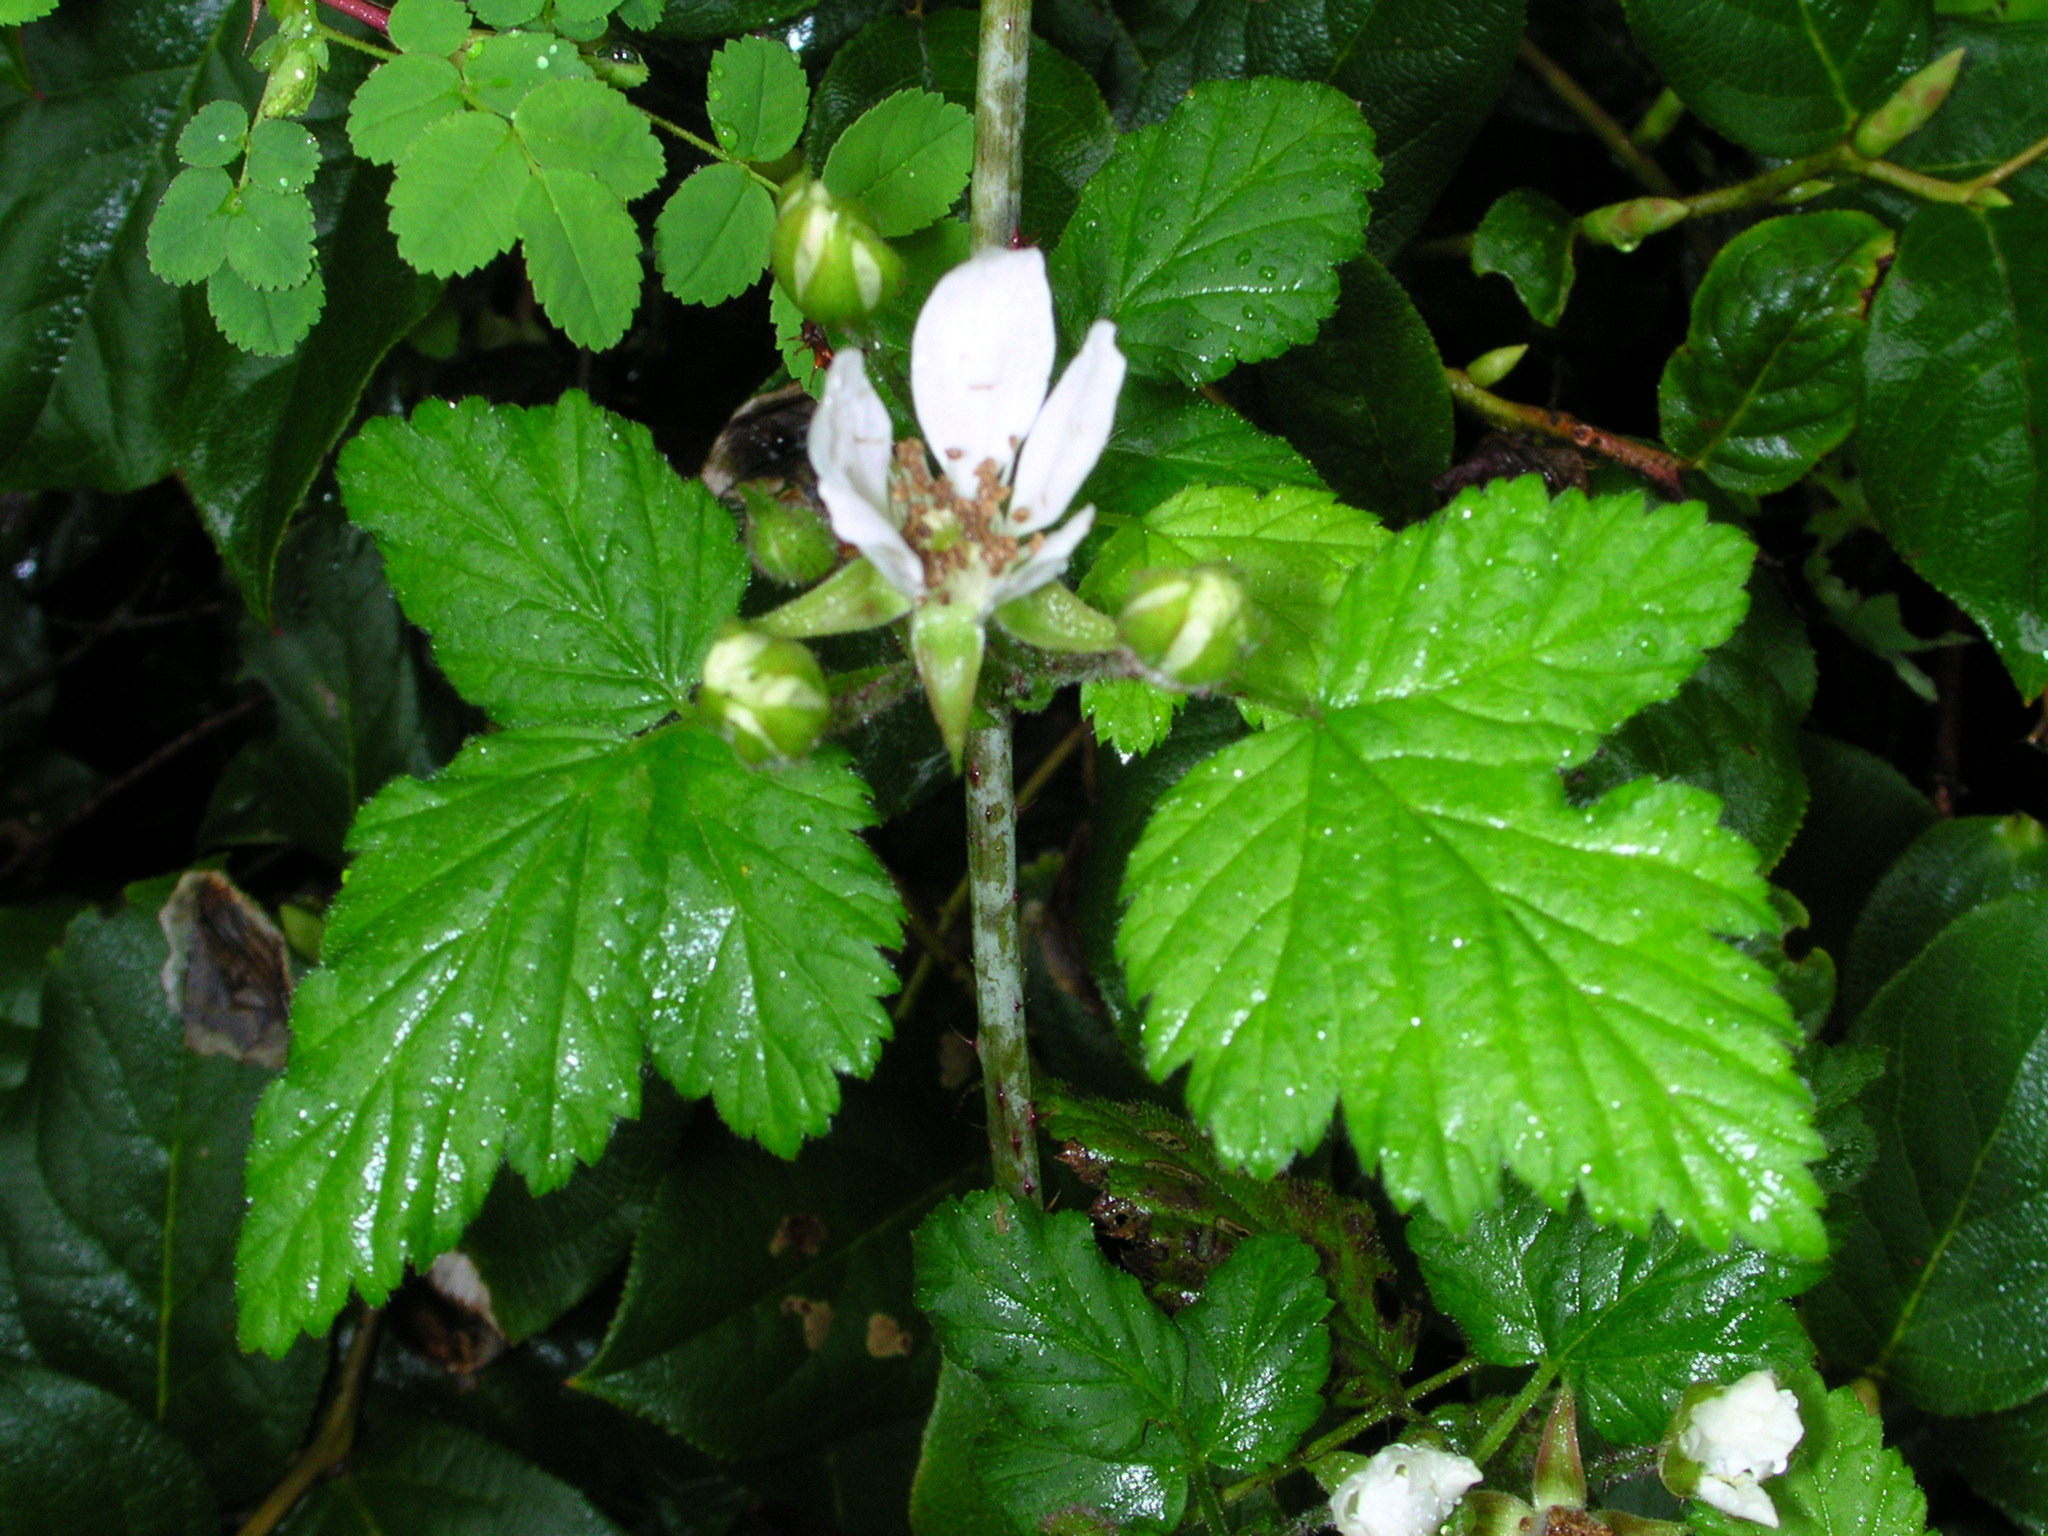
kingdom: Plantae
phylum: Tracheophyta
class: Magnoliopsida
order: Rosales
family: Rosaceae
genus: Rubus
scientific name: Rubus ursinus
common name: Pacific blackberry
